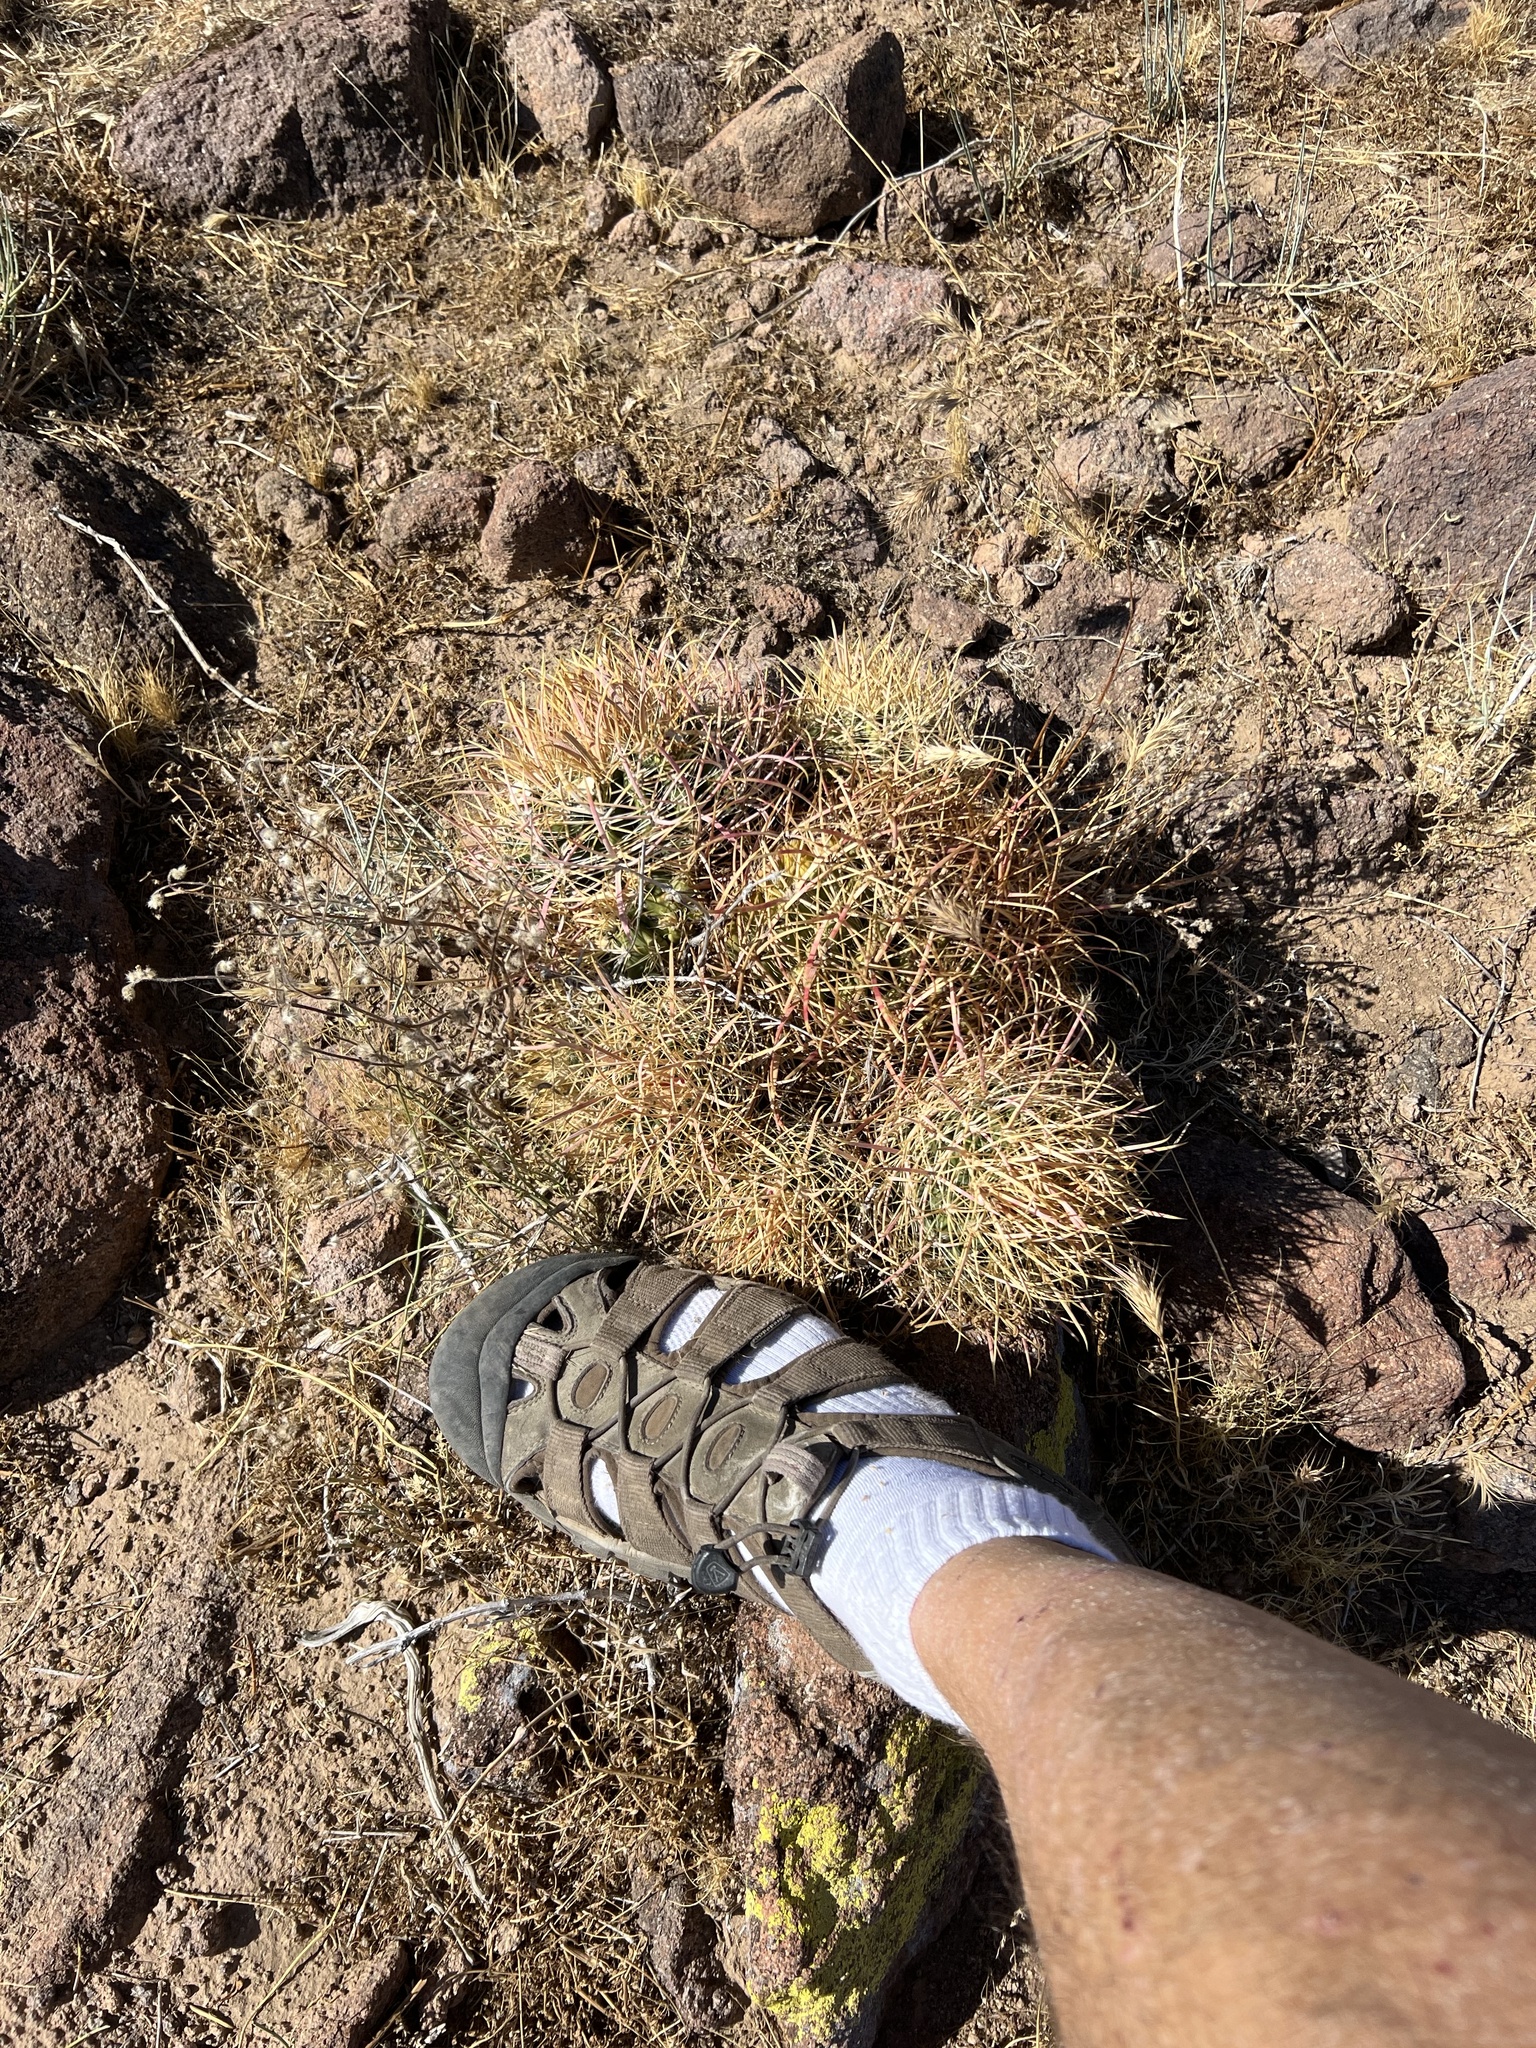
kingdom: Plantae
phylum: Tracheophyta
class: Magnoliopsida
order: Caryophyllales
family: Cactaceae
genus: Ferocactus
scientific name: Ferocactus cylindraceus
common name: California barrel cactus
